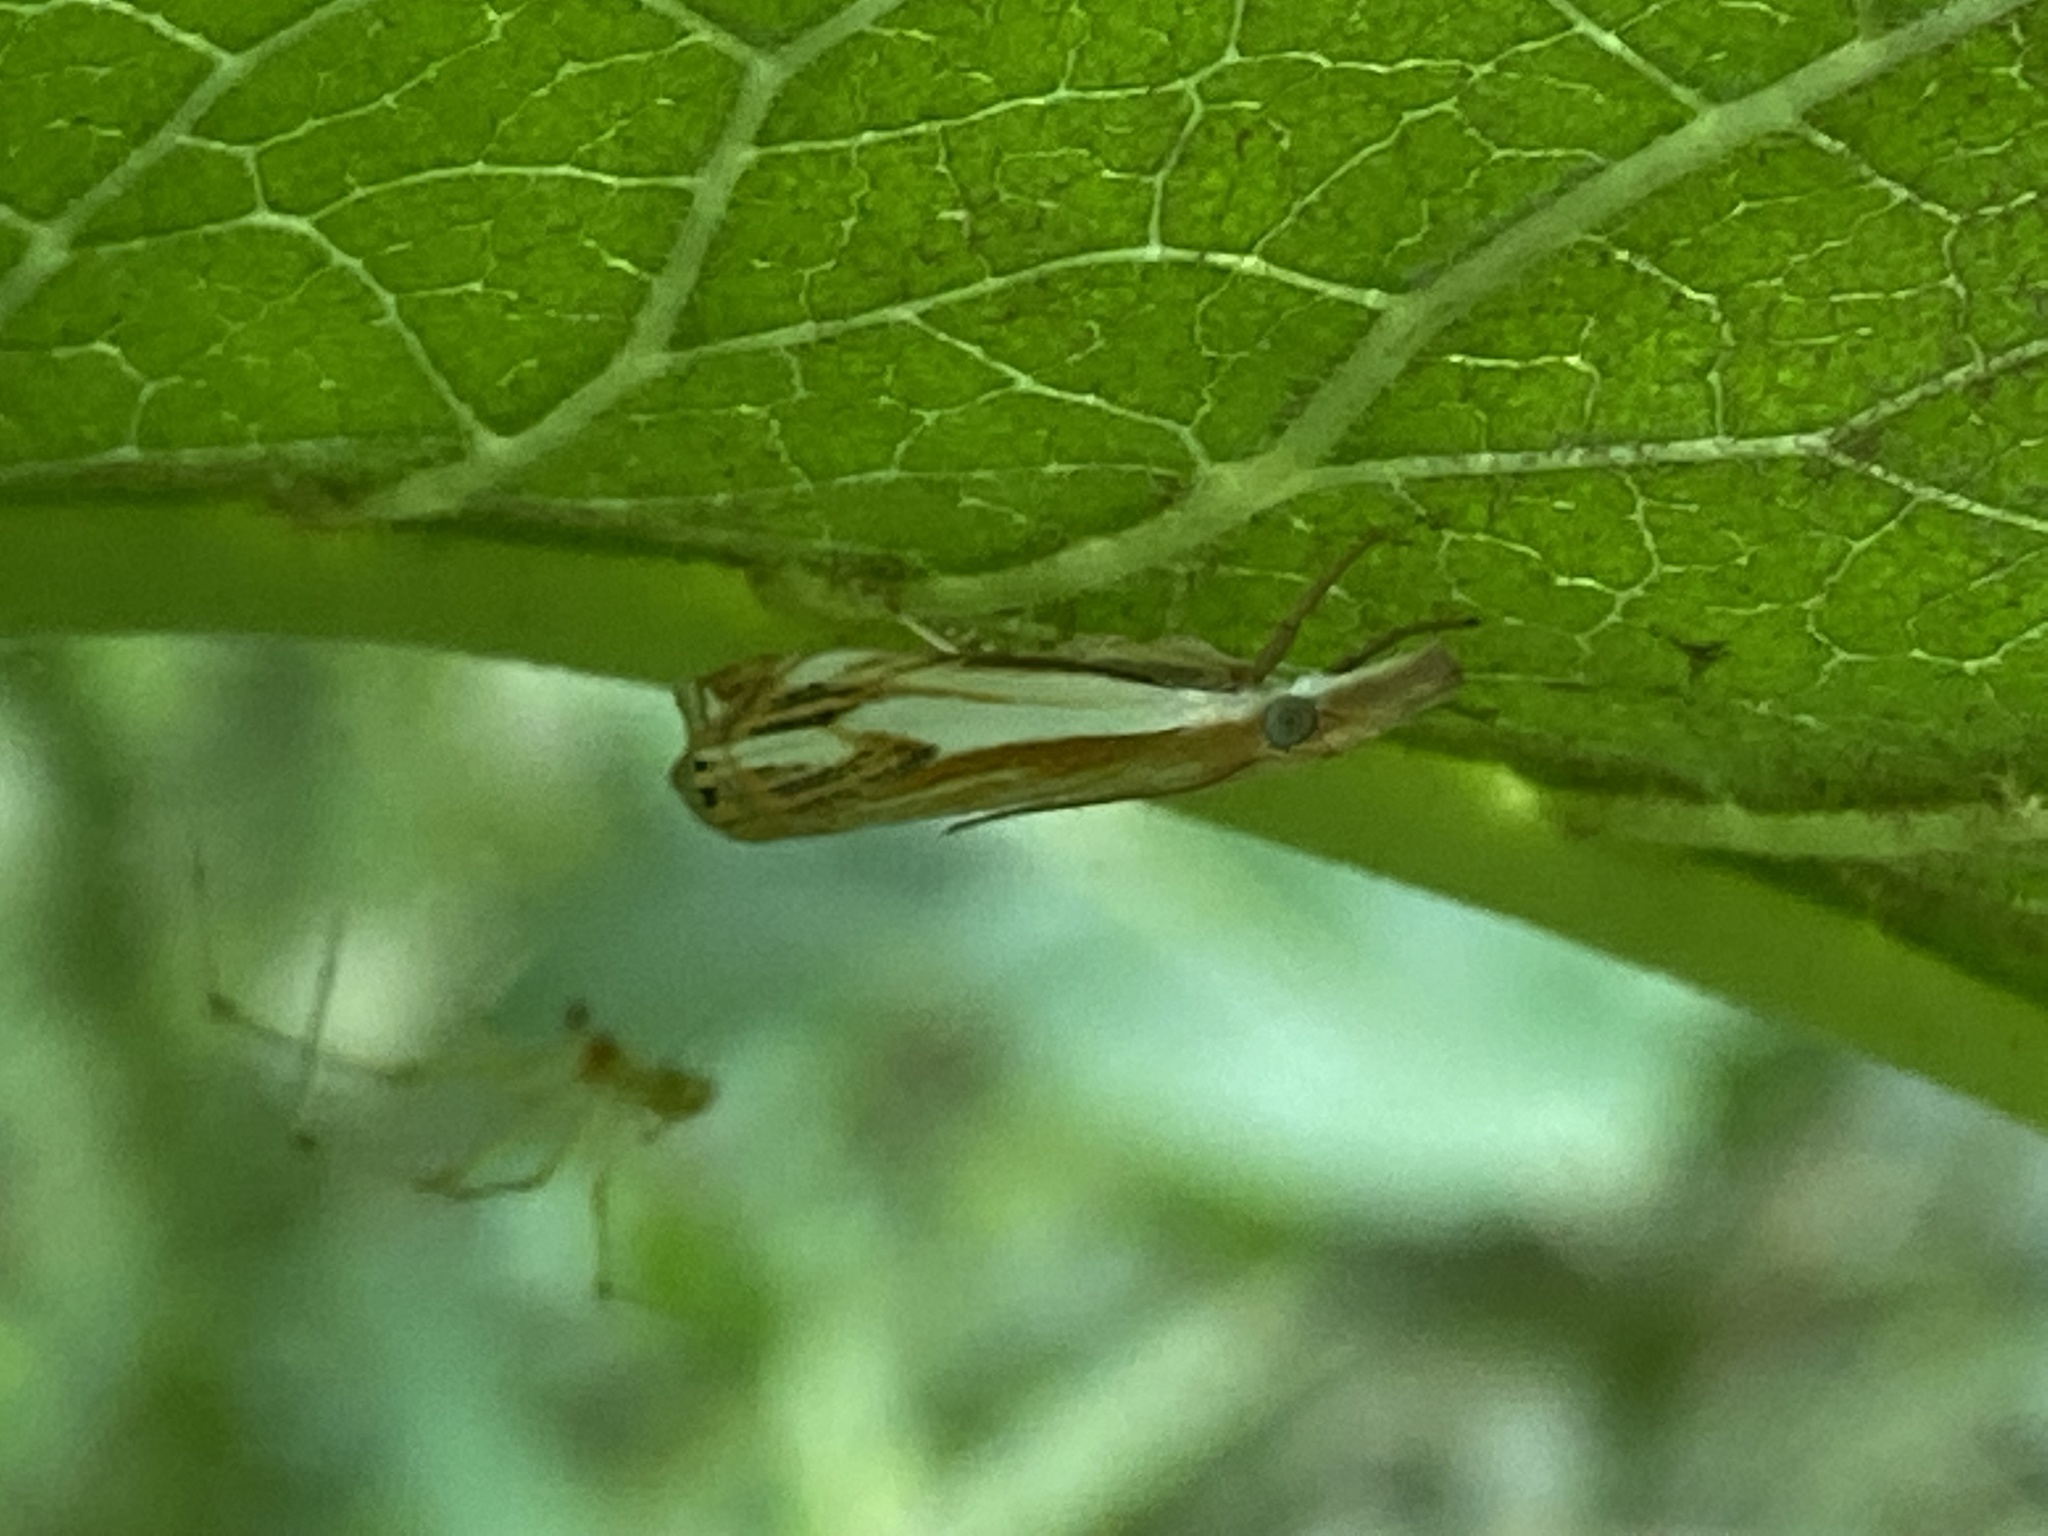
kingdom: Animalia
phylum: Arthropoda
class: Insecta
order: Lepidoptera
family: Crambidae
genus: Crambus
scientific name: Crambus agitatellus
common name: Double-banded grass-veneer
